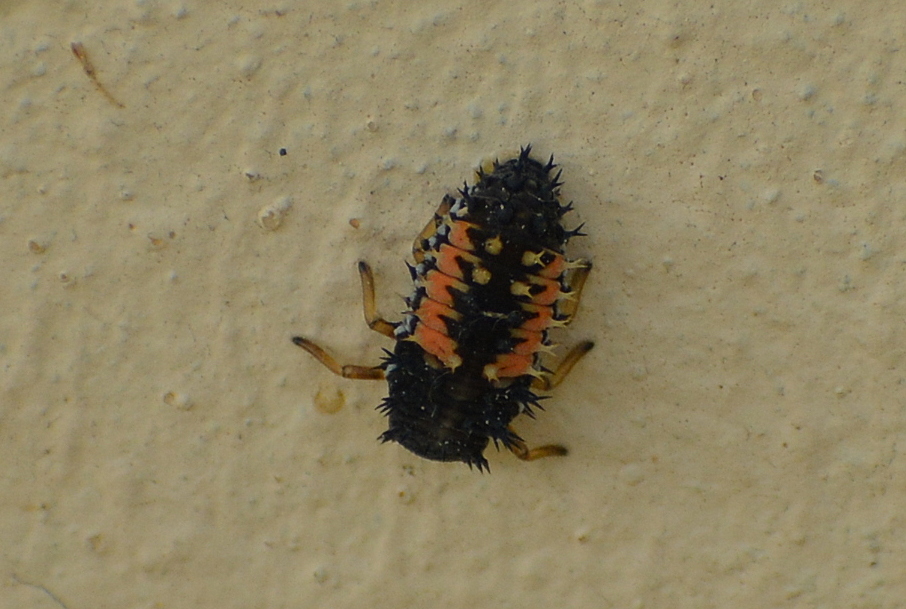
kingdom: Animalia
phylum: Arthropoda
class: Insecta
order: Coleoptera
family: Coccinellidae
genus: Harmonia
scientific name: Harmonia axyridis
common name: Harlequin ladybird
